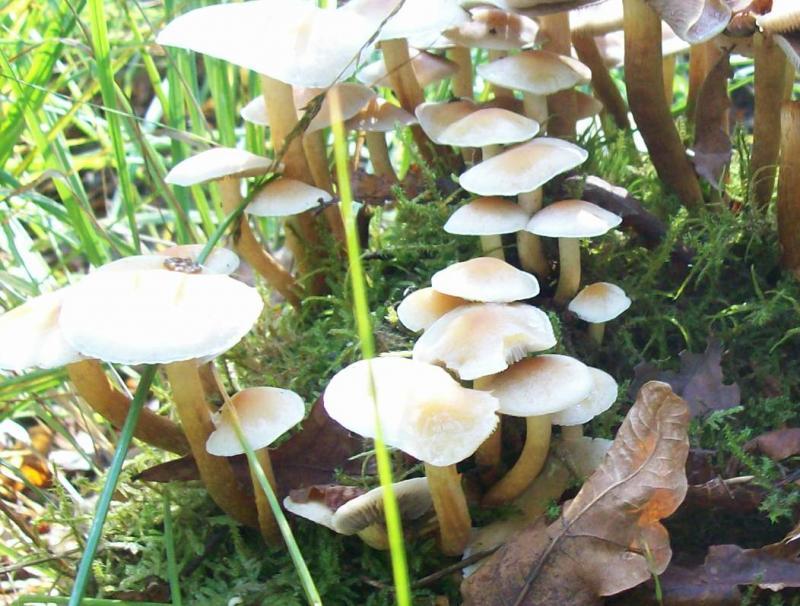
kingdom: Fungi
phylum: Basidiomycota
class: Agaricomycetes
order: Agaricales
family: Strophariaceae
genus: Hypholoma
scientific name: Hypholoma fasciculare
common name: Sulphur tuft
